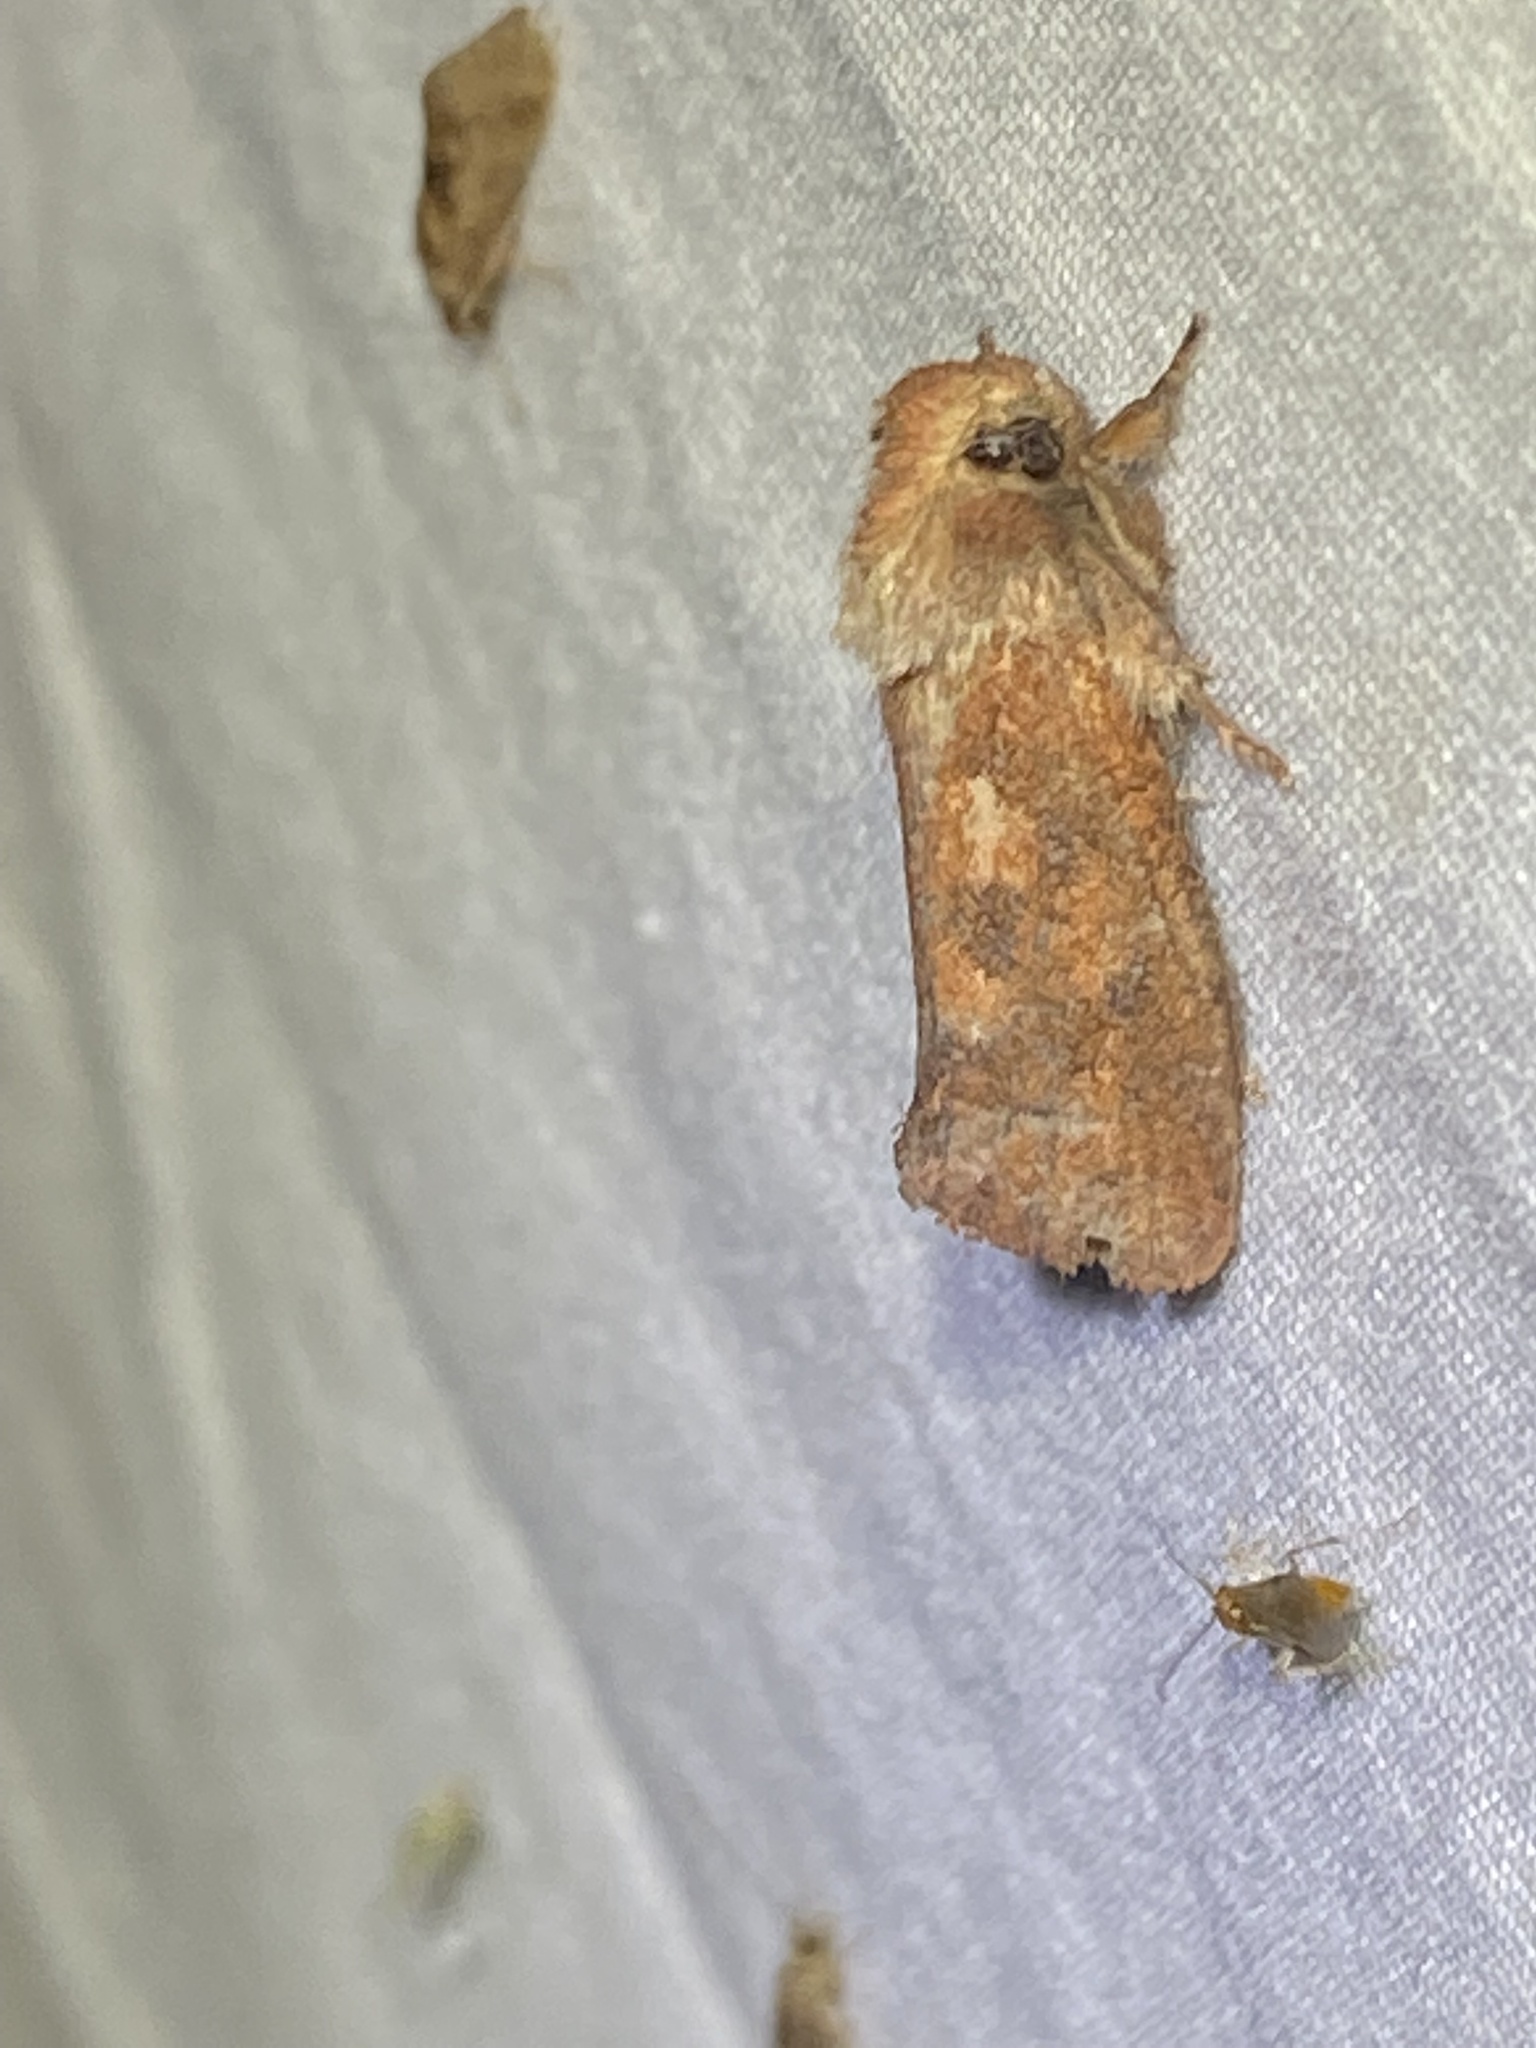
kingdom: Animalia
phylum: Arthropoda
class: Insecta
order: Lepidoptera
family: Tineidae
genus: Acrolophus
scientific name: Acrolophus plumifrontella
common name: Eastern grass tubeworm moth
